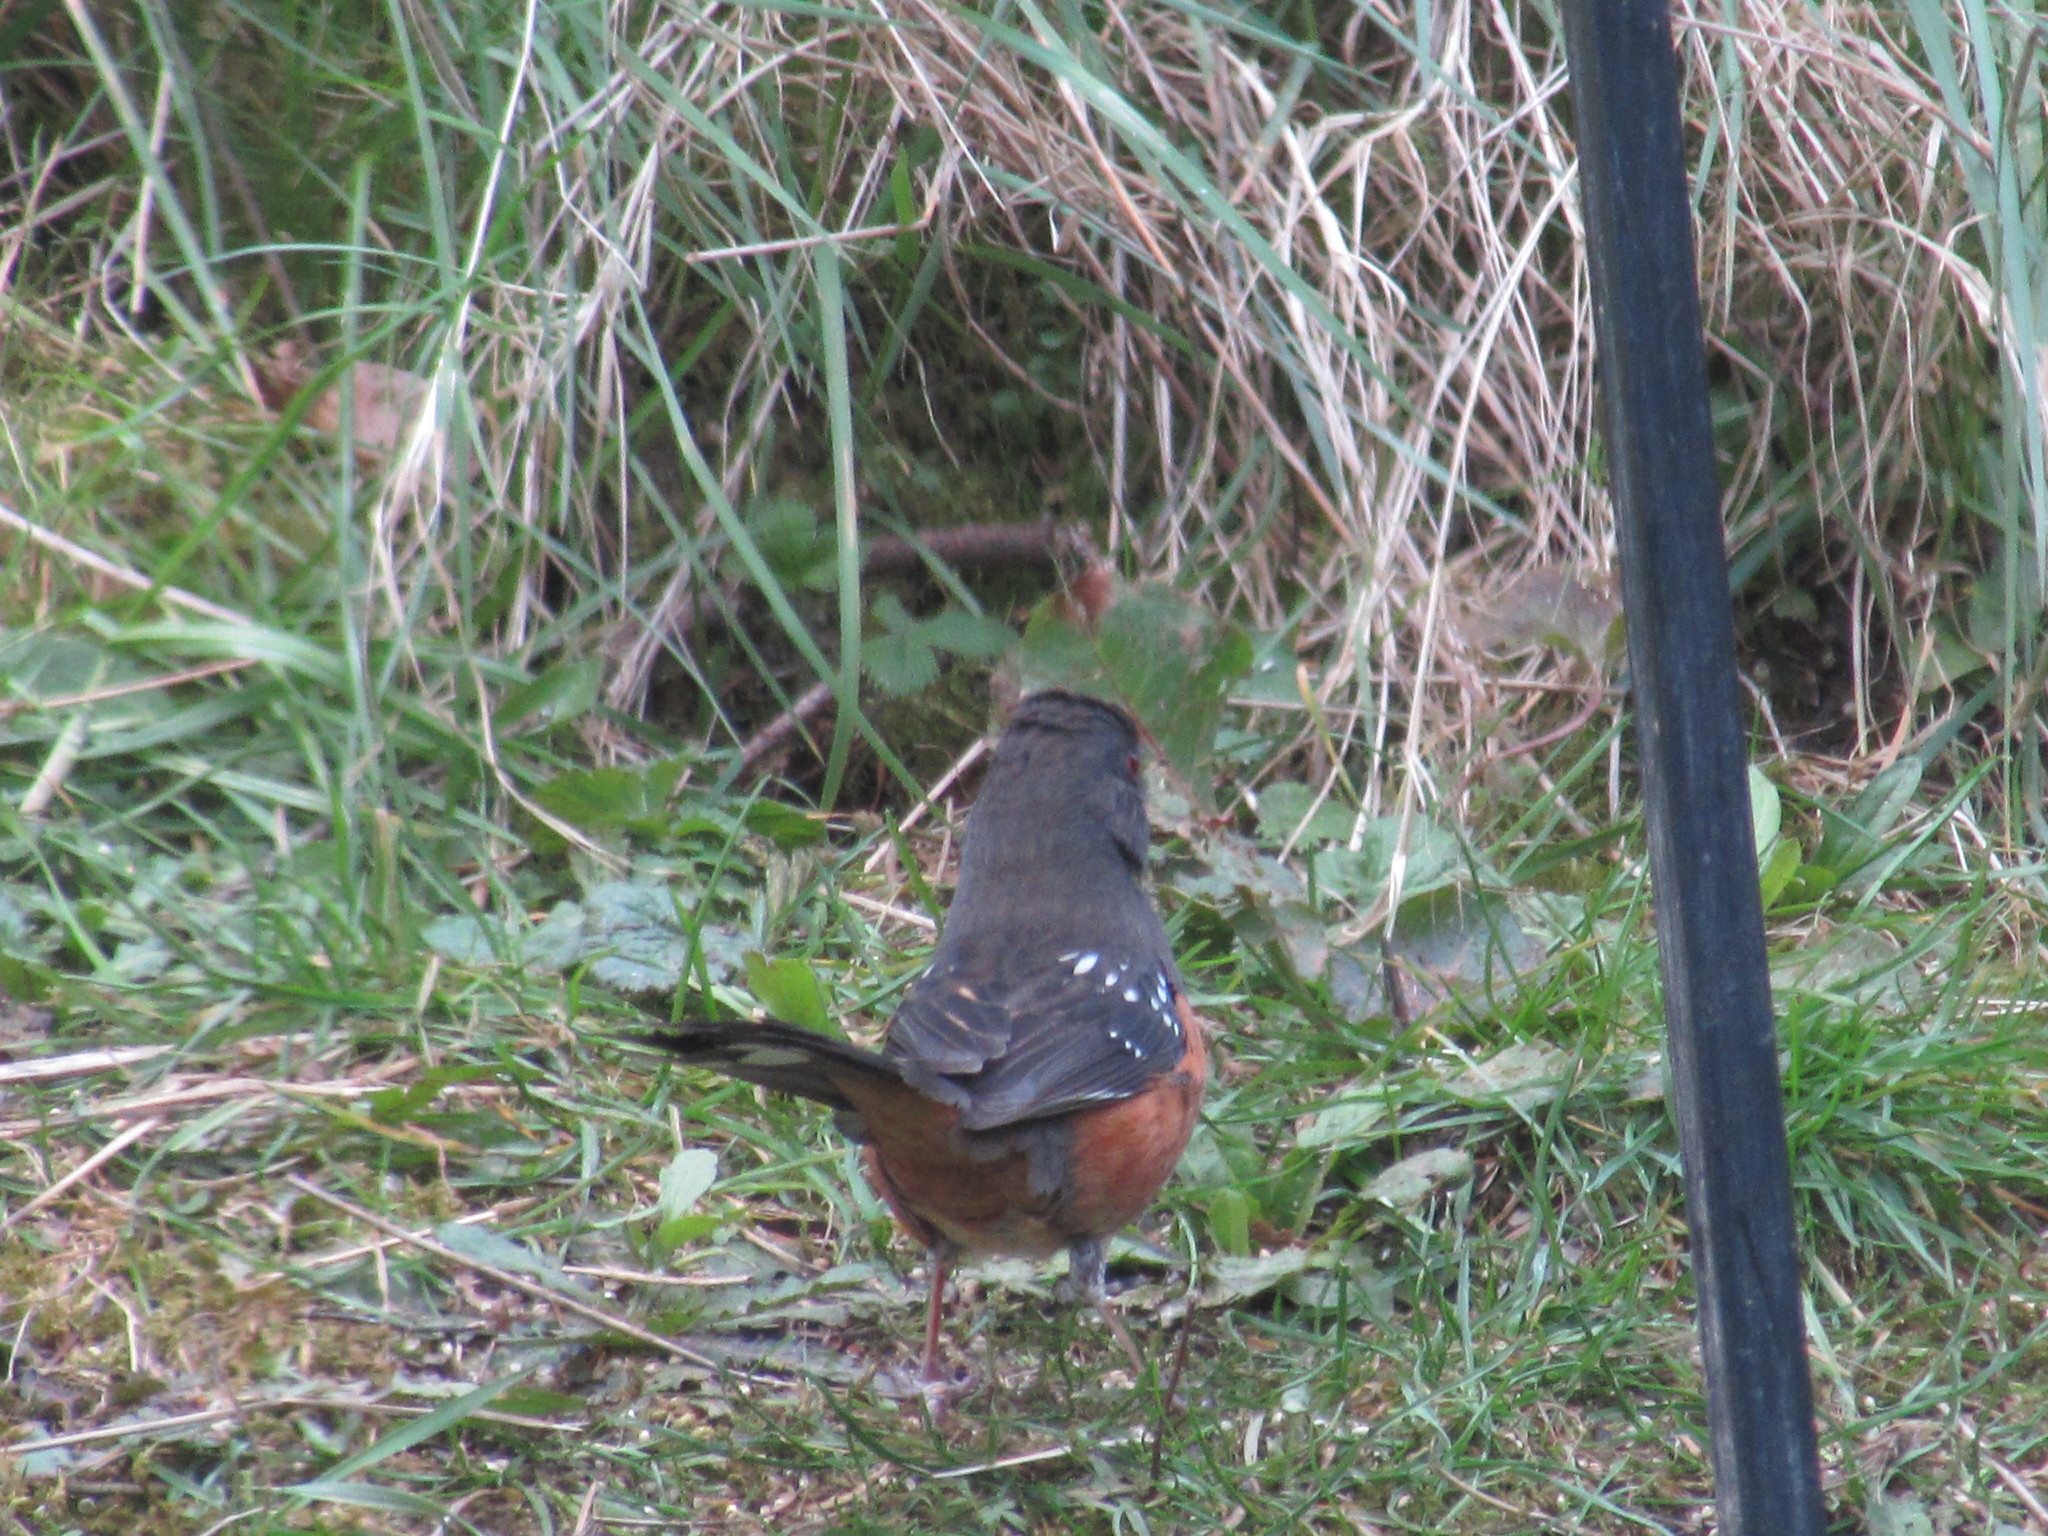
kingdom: Animalia
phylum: Chordata
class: Aves
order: Passeriformes
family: Passerellidae
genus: Pipilo
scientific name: Pipilo maculatus
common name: Spotted towhee
